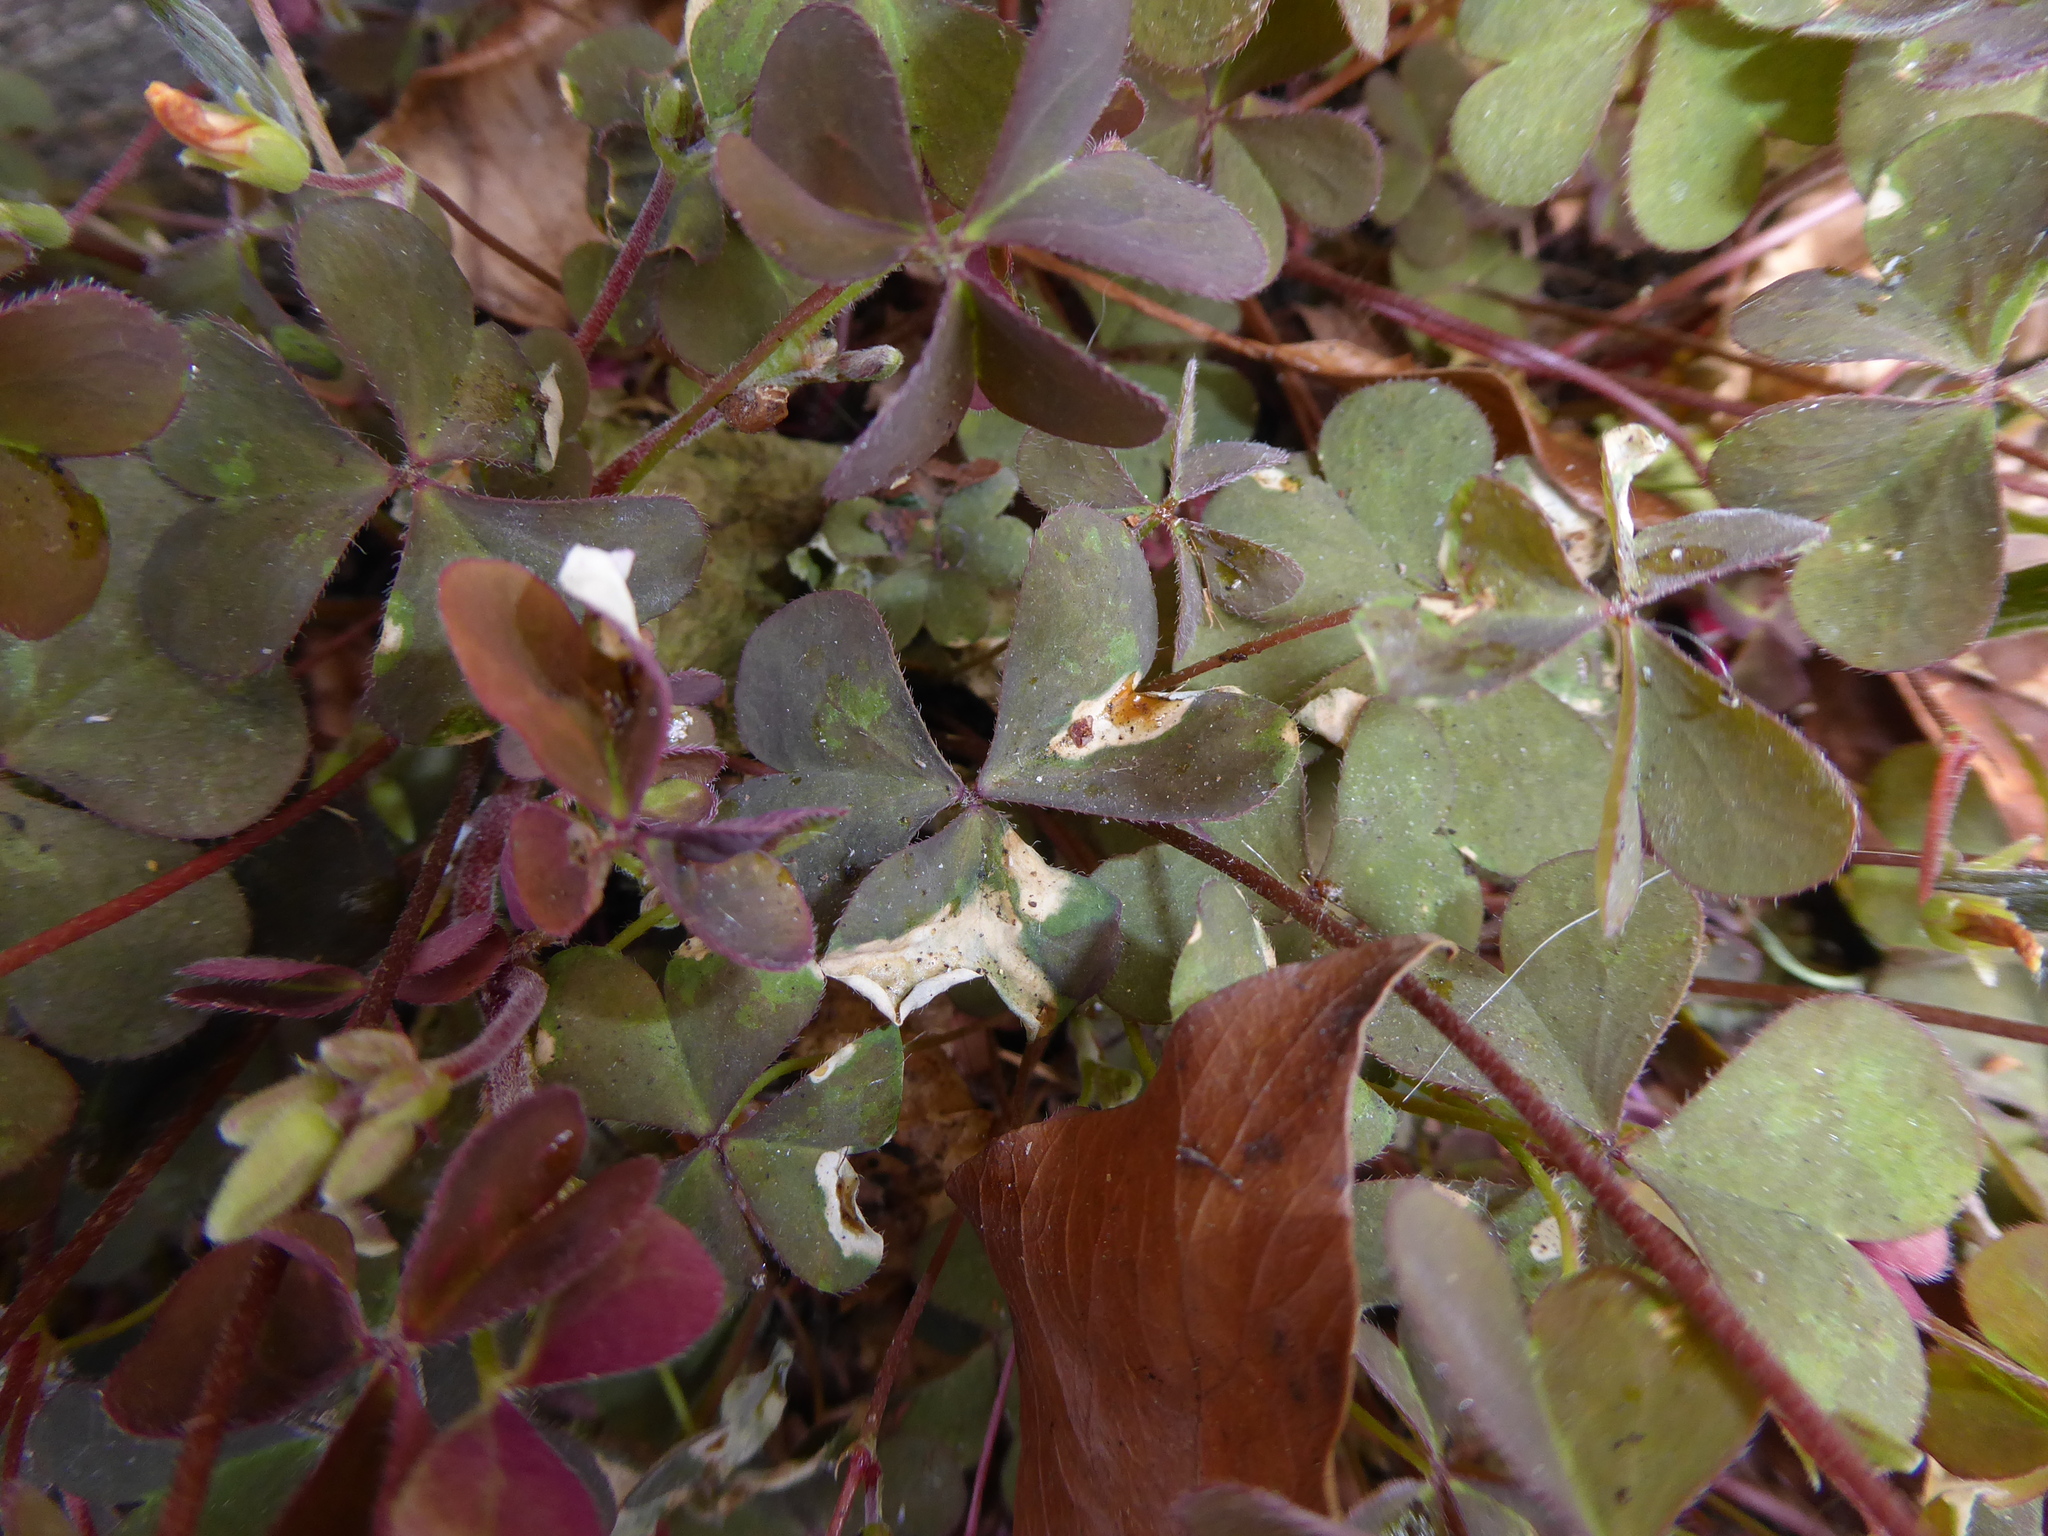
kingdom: Plantae
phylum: Tracheophyta
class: Magnoliopsida
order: Oxalidales
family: Oxalidaceae
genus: Oxalis
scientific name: Oxalis corniculata
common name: Procumbent yellow-sorrel
